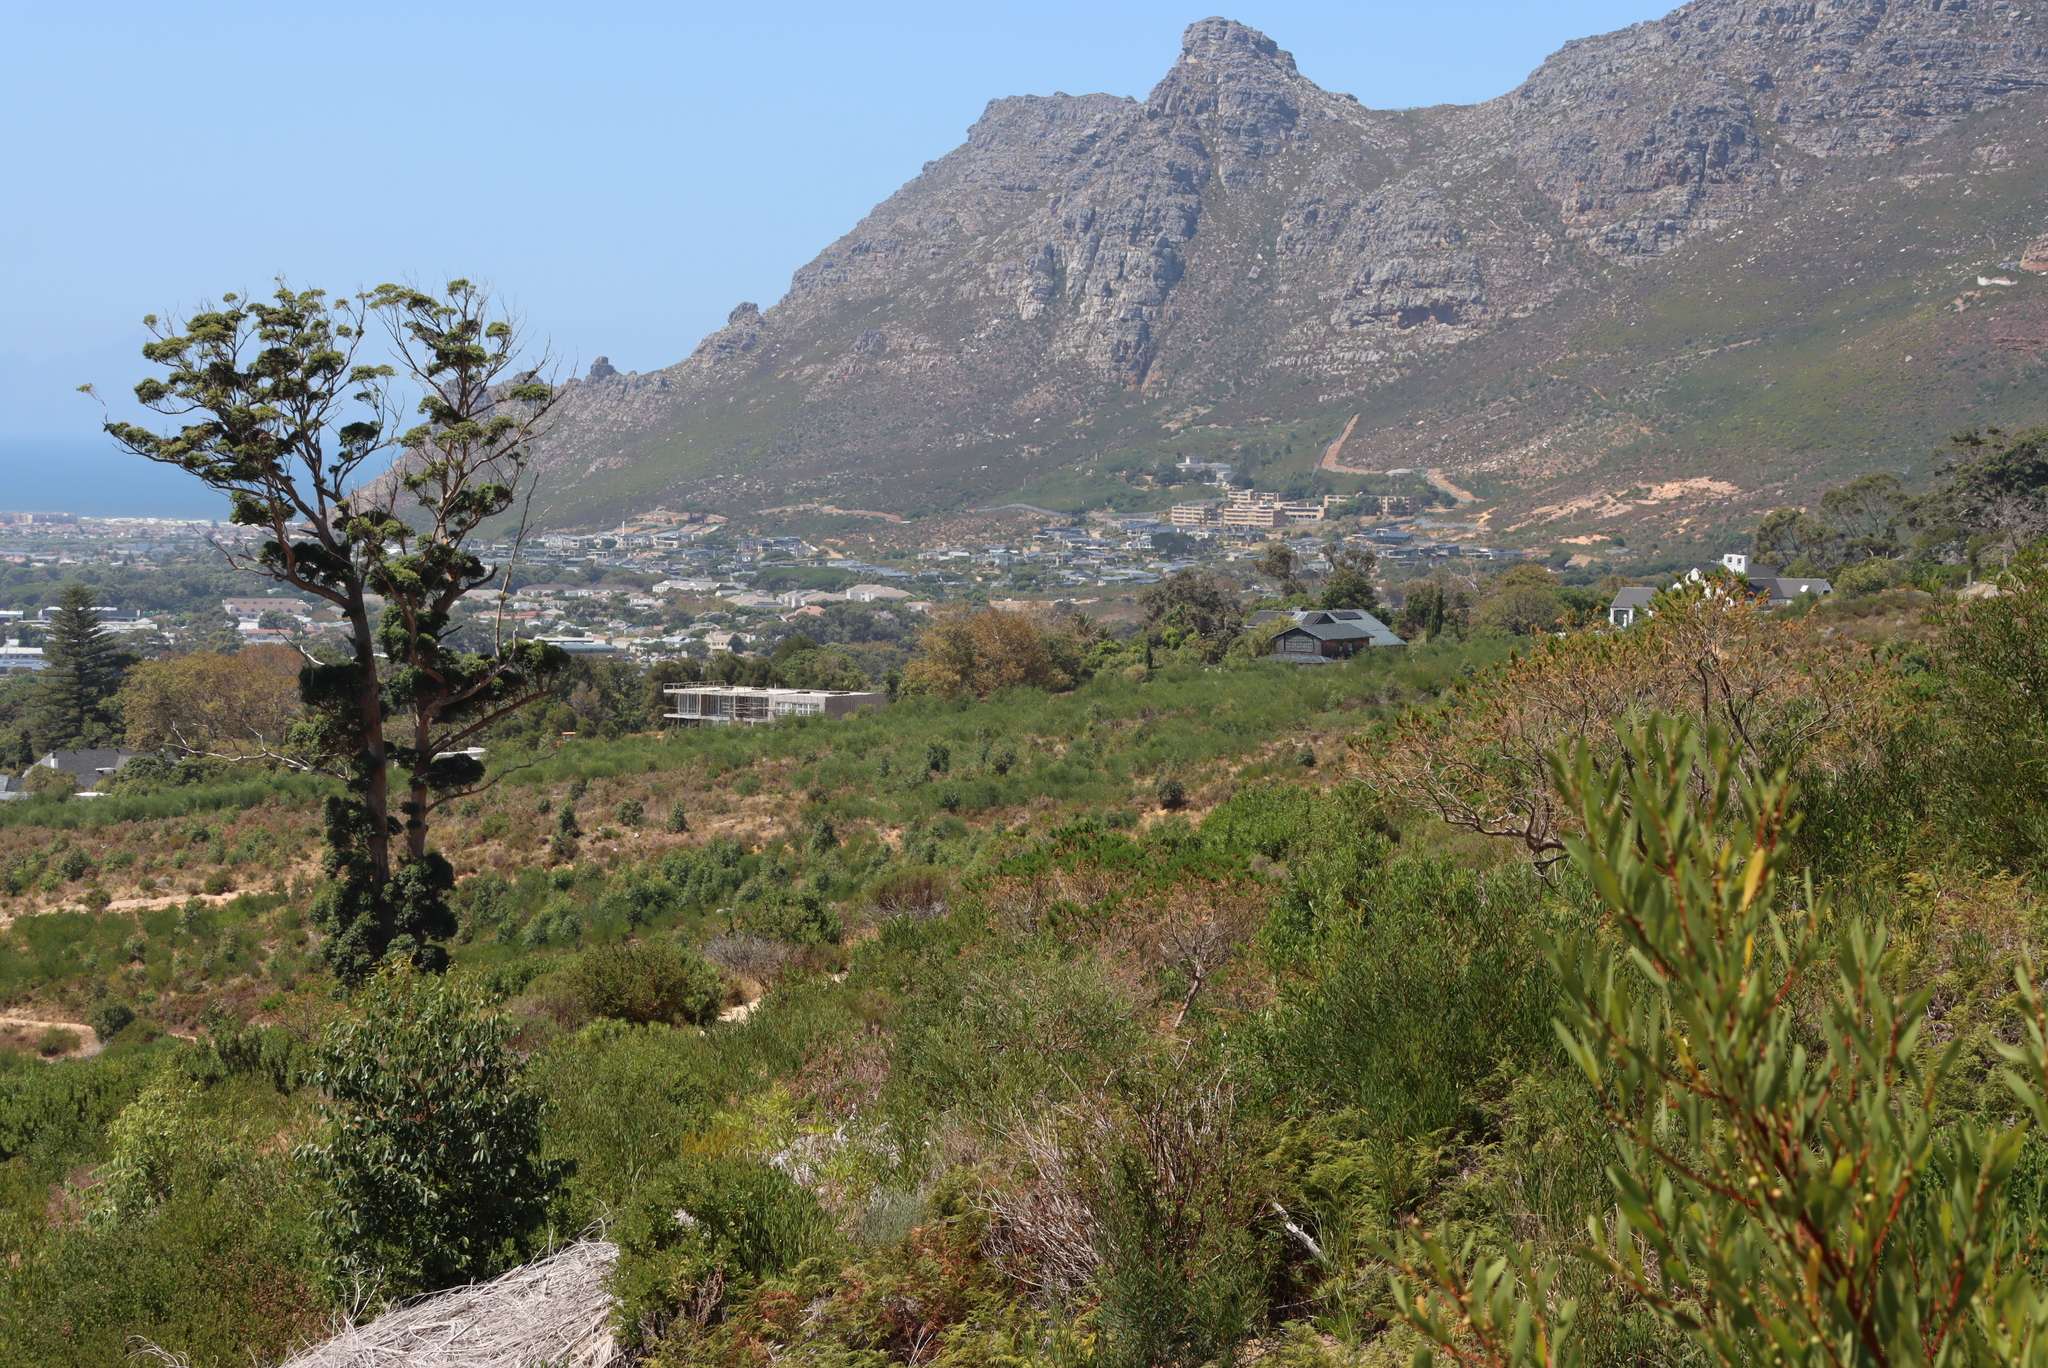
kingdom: Plantae
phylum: Tracheophyta
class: Magnoliopsida
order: Fabales
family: Fabaceae
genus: Acacia
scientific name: Acacia longifolia
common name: Sydney golden wattle
